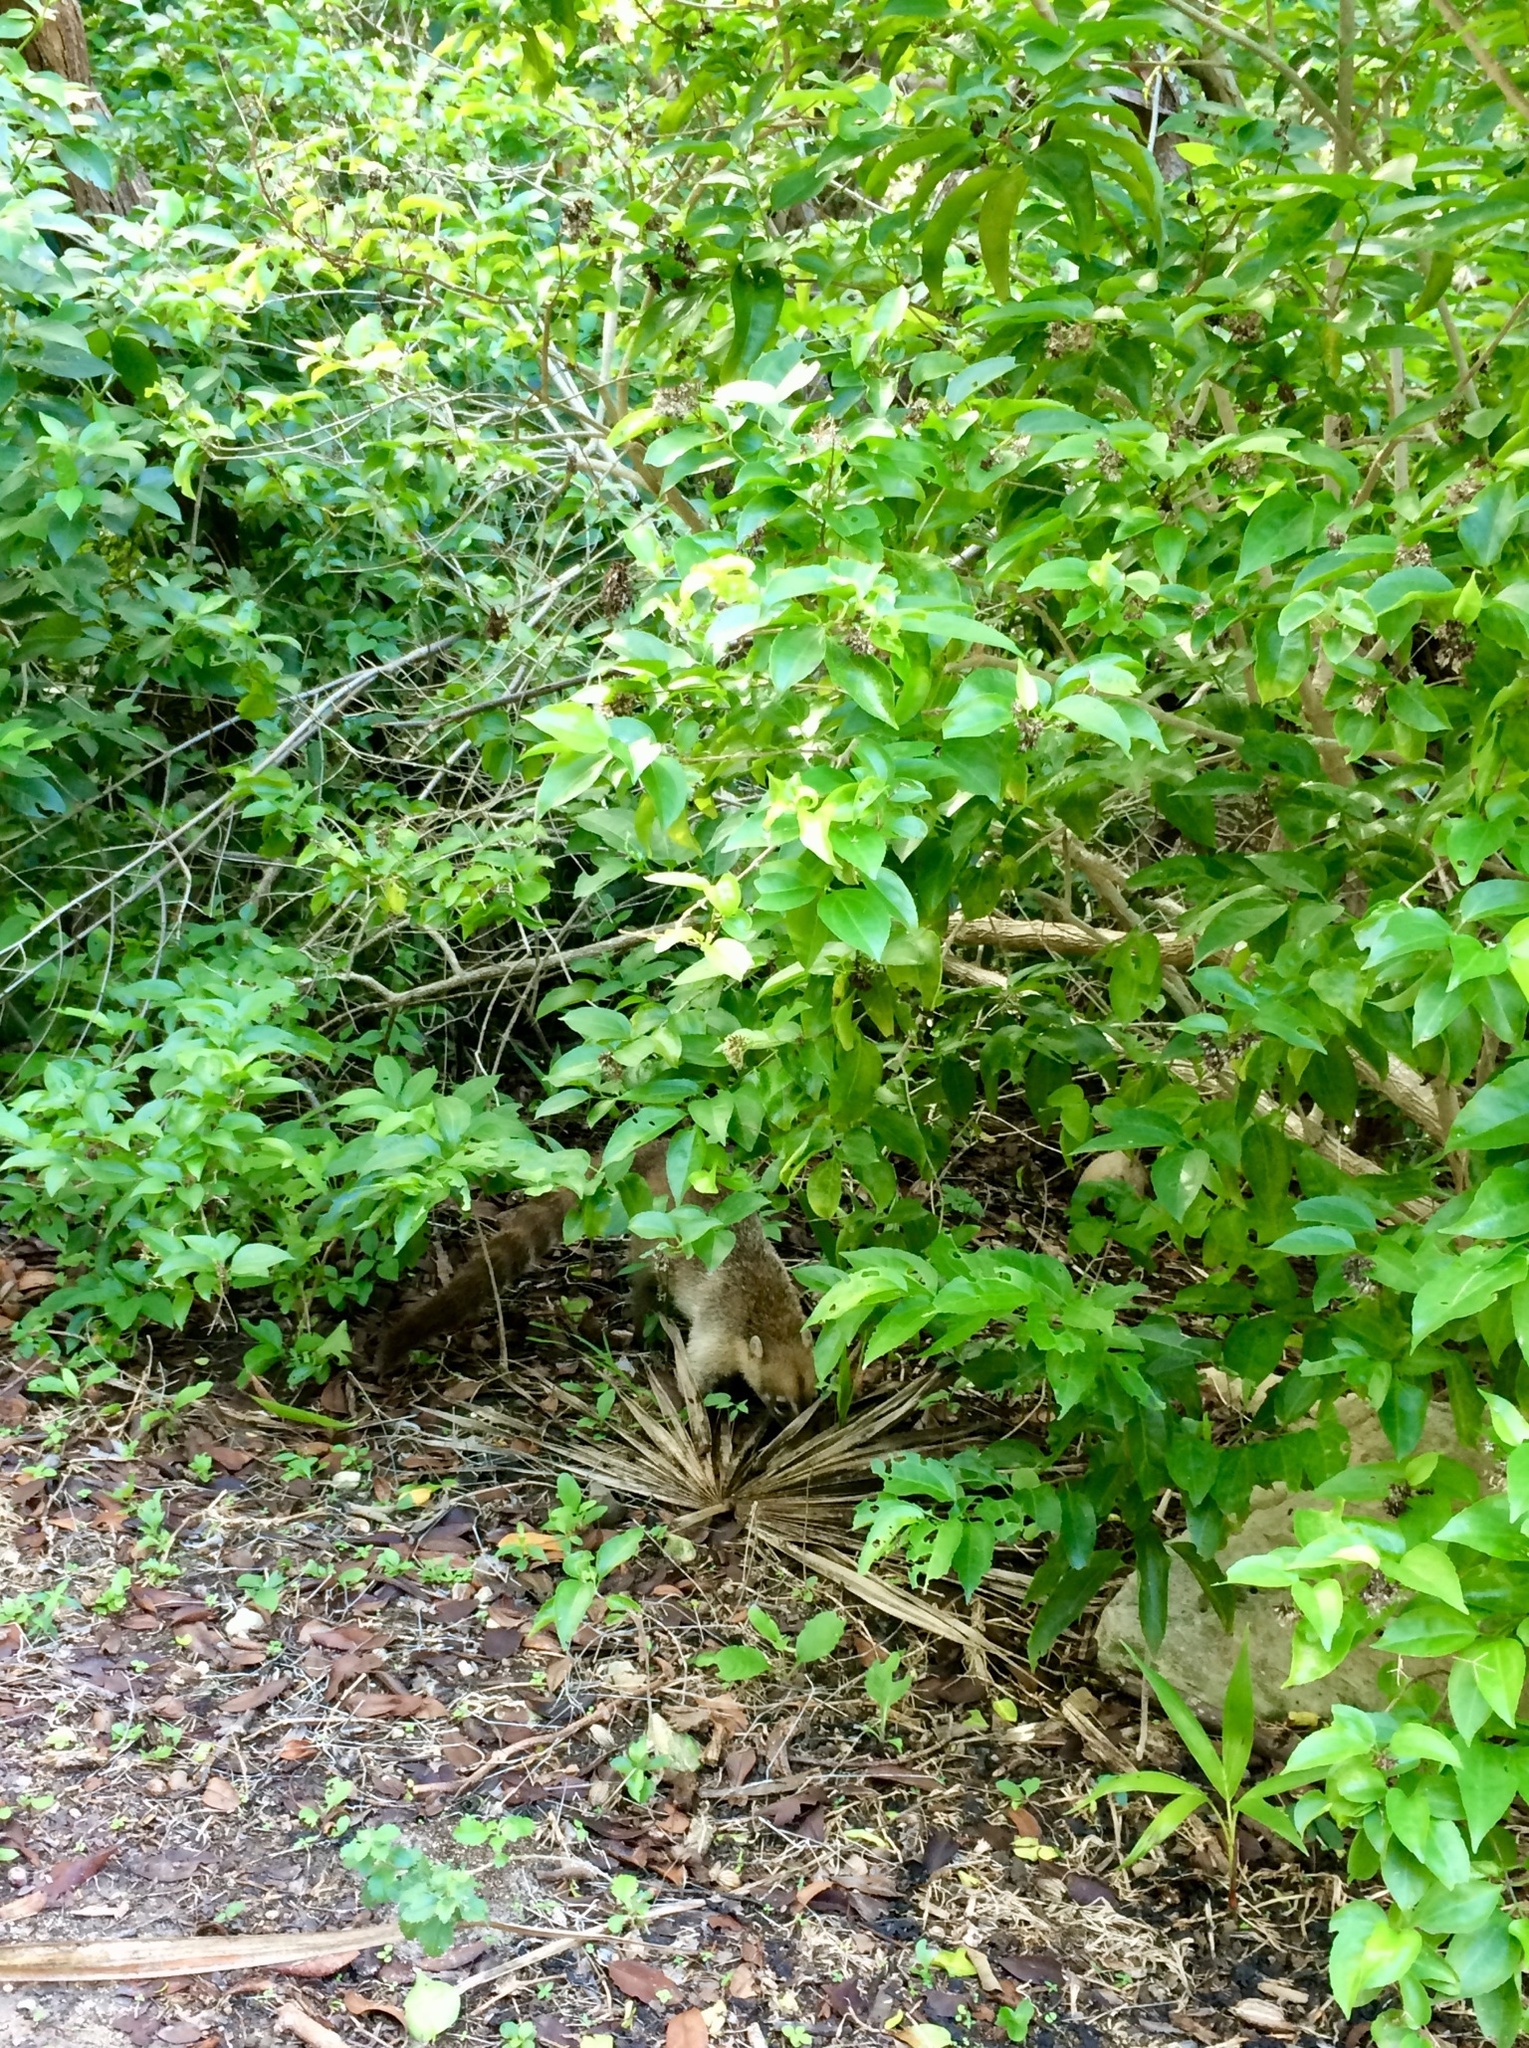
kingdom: Animalia
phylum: Chordata
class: Mammalia
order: Carnivora
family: Procyonidae
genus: Nasua
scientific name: Nasua narica
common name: White-nosed coati
